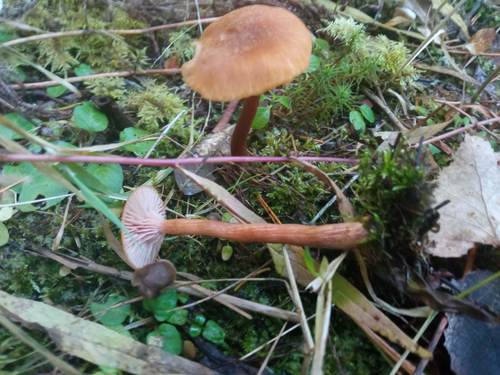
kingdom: Fungi
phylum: Basidiomycota
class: Agaricomycetes
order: Agaricales
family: Hydnangiaceae
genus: Laccaria
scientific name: Laccaria
